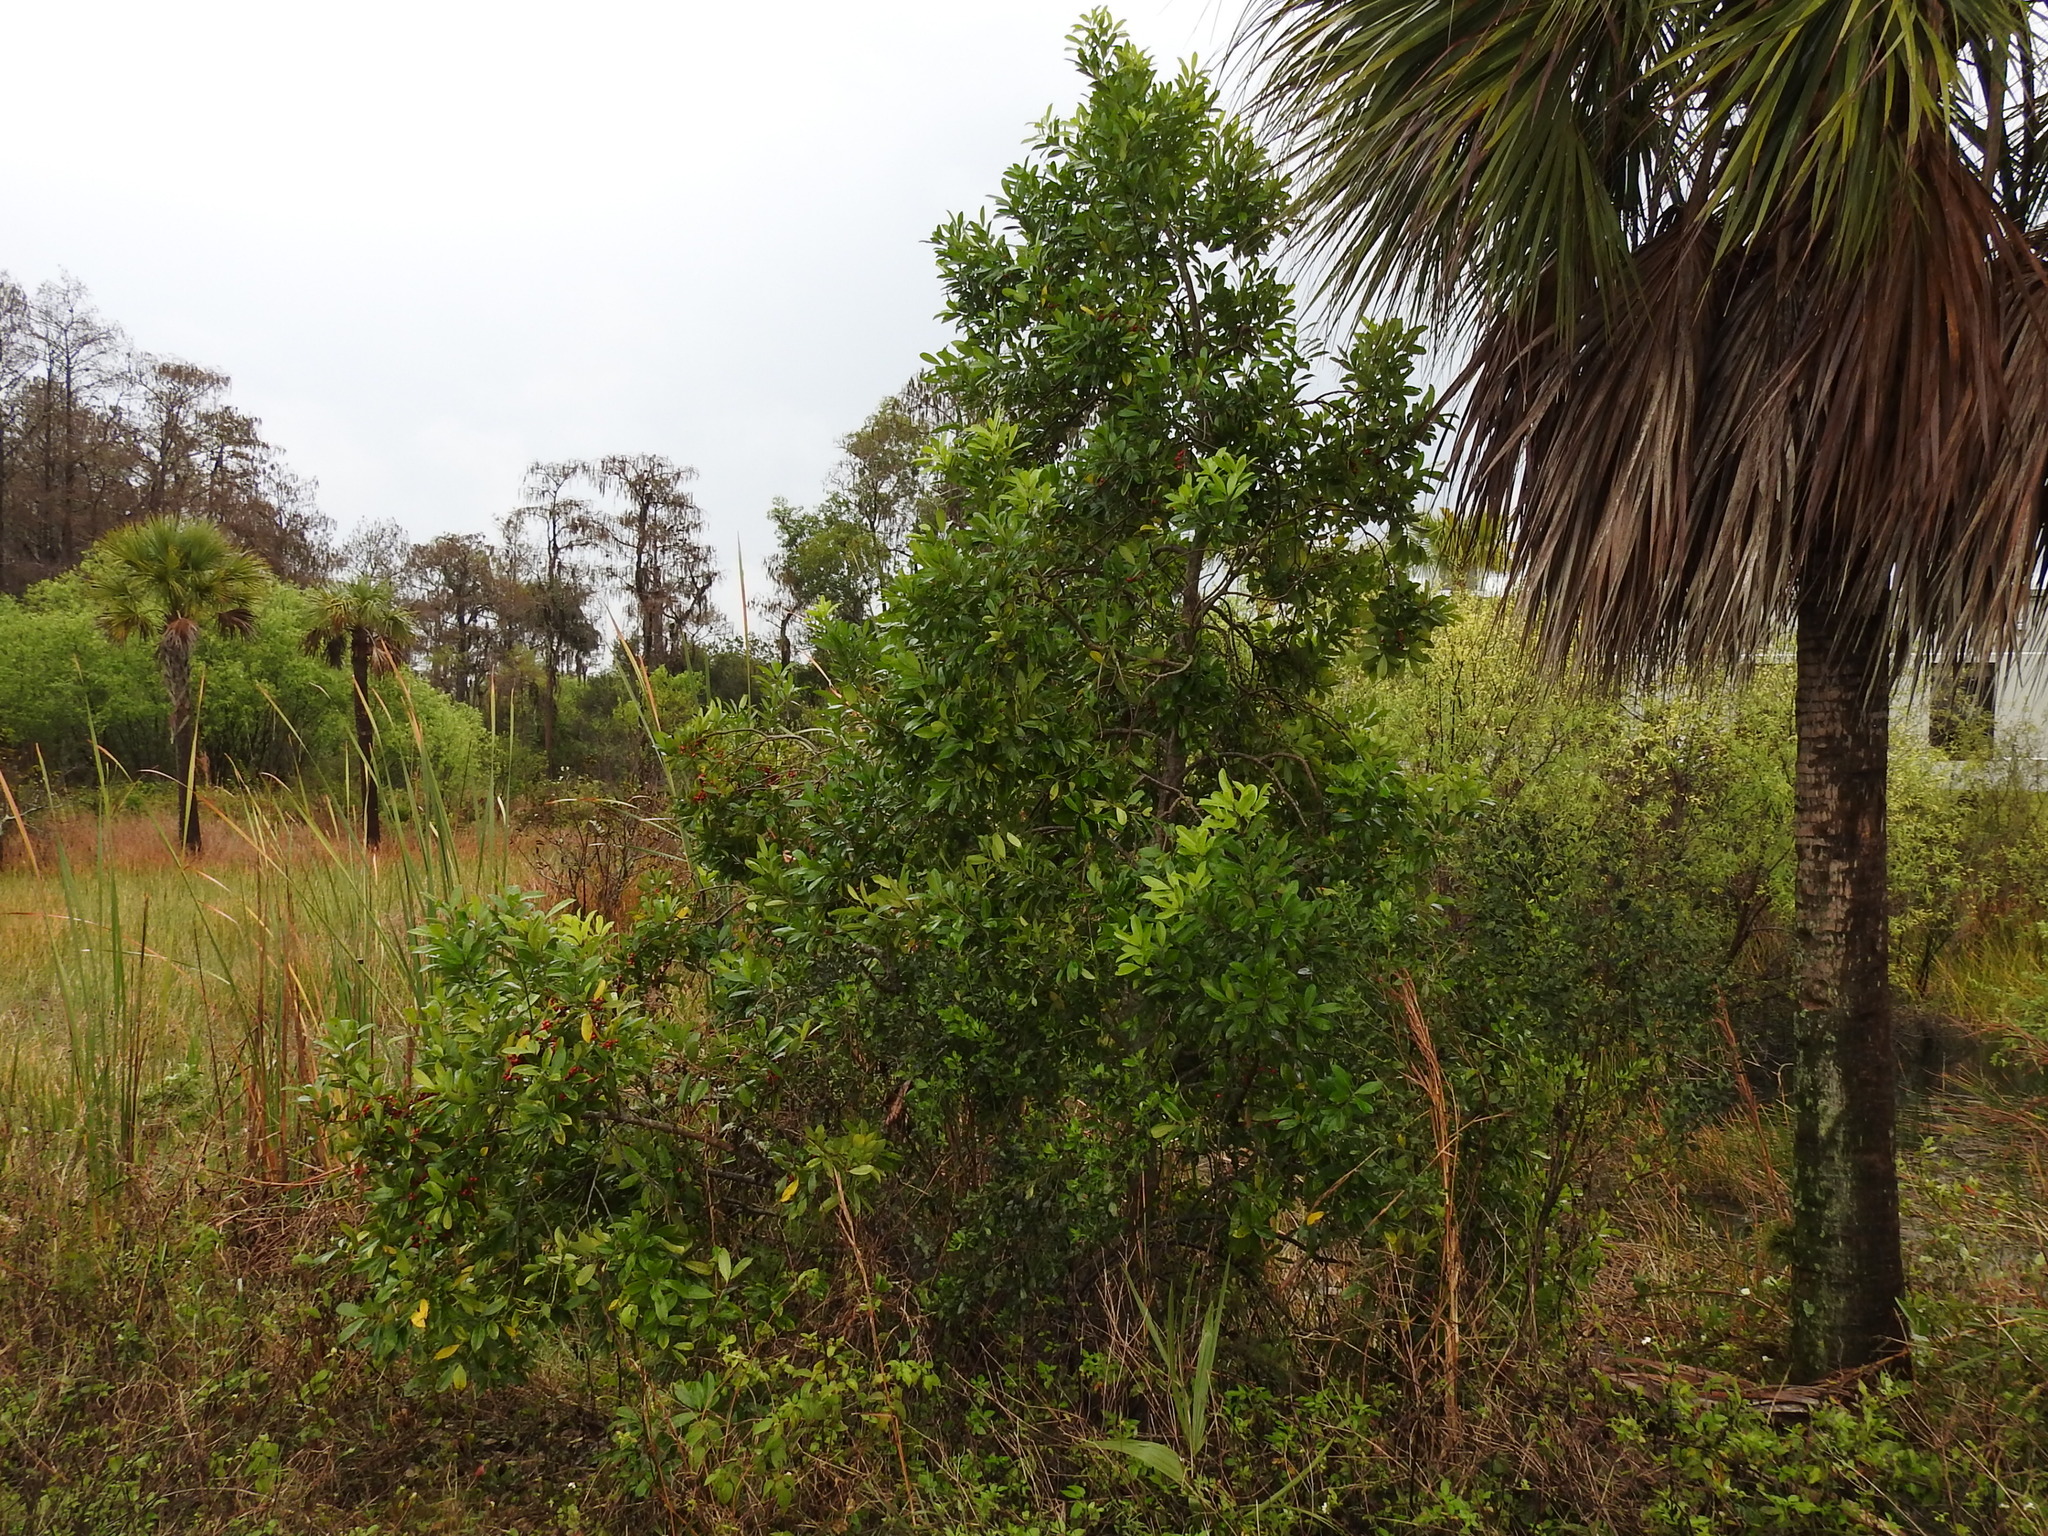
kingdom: Plantae
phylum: Tracheophyta
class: Magnoliopsida
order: Aquifoliales
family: Aquifoliaceae
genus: Ilex
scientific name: Ilex cassine
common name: Dahoon
